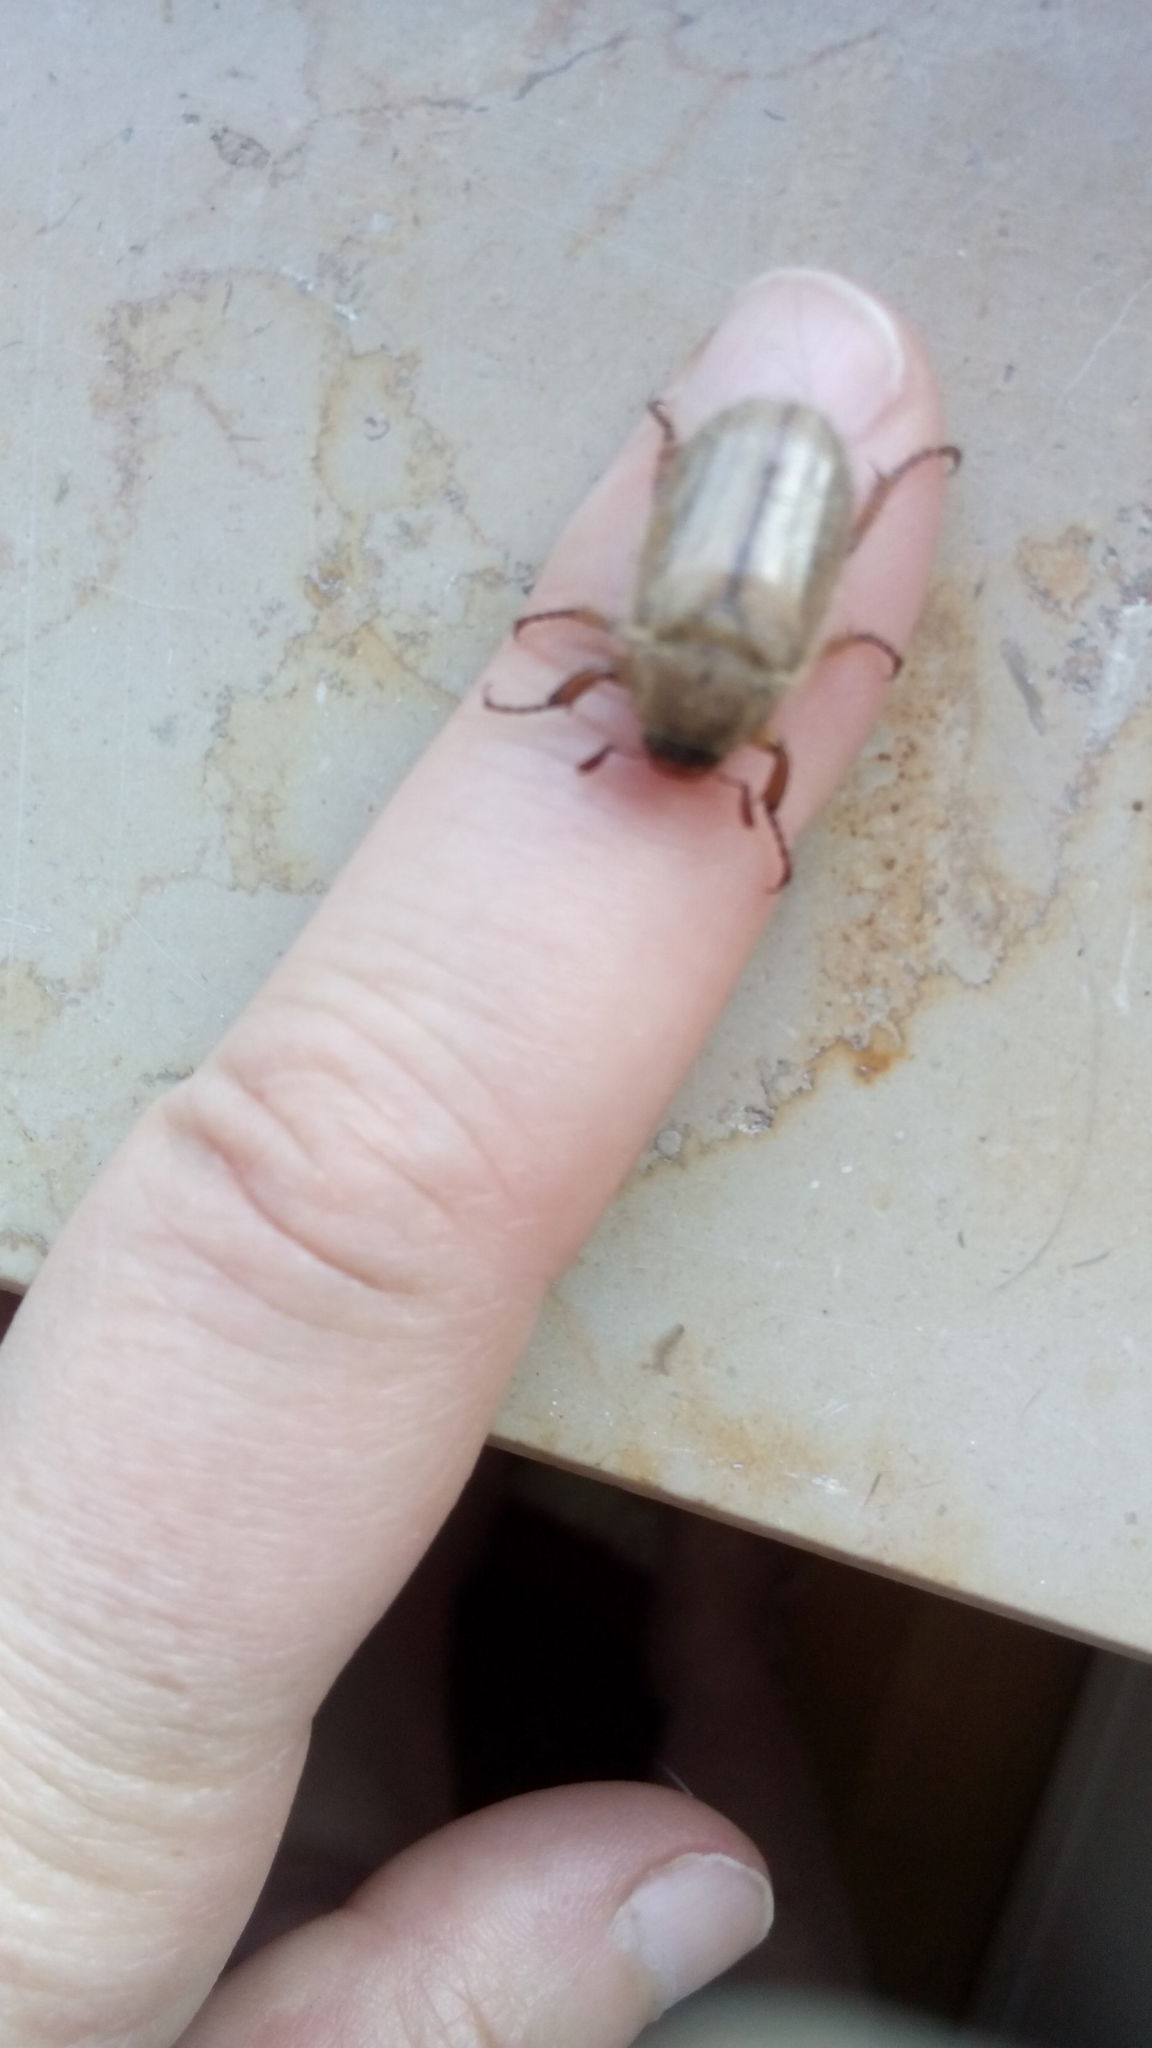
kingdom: Animalia
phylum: Arthropoda
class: Insecta
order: Coleoptera
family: Scarabaeidae
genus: Amphimallon
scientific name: Amphimallon solstitiale
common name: Summer chafer
